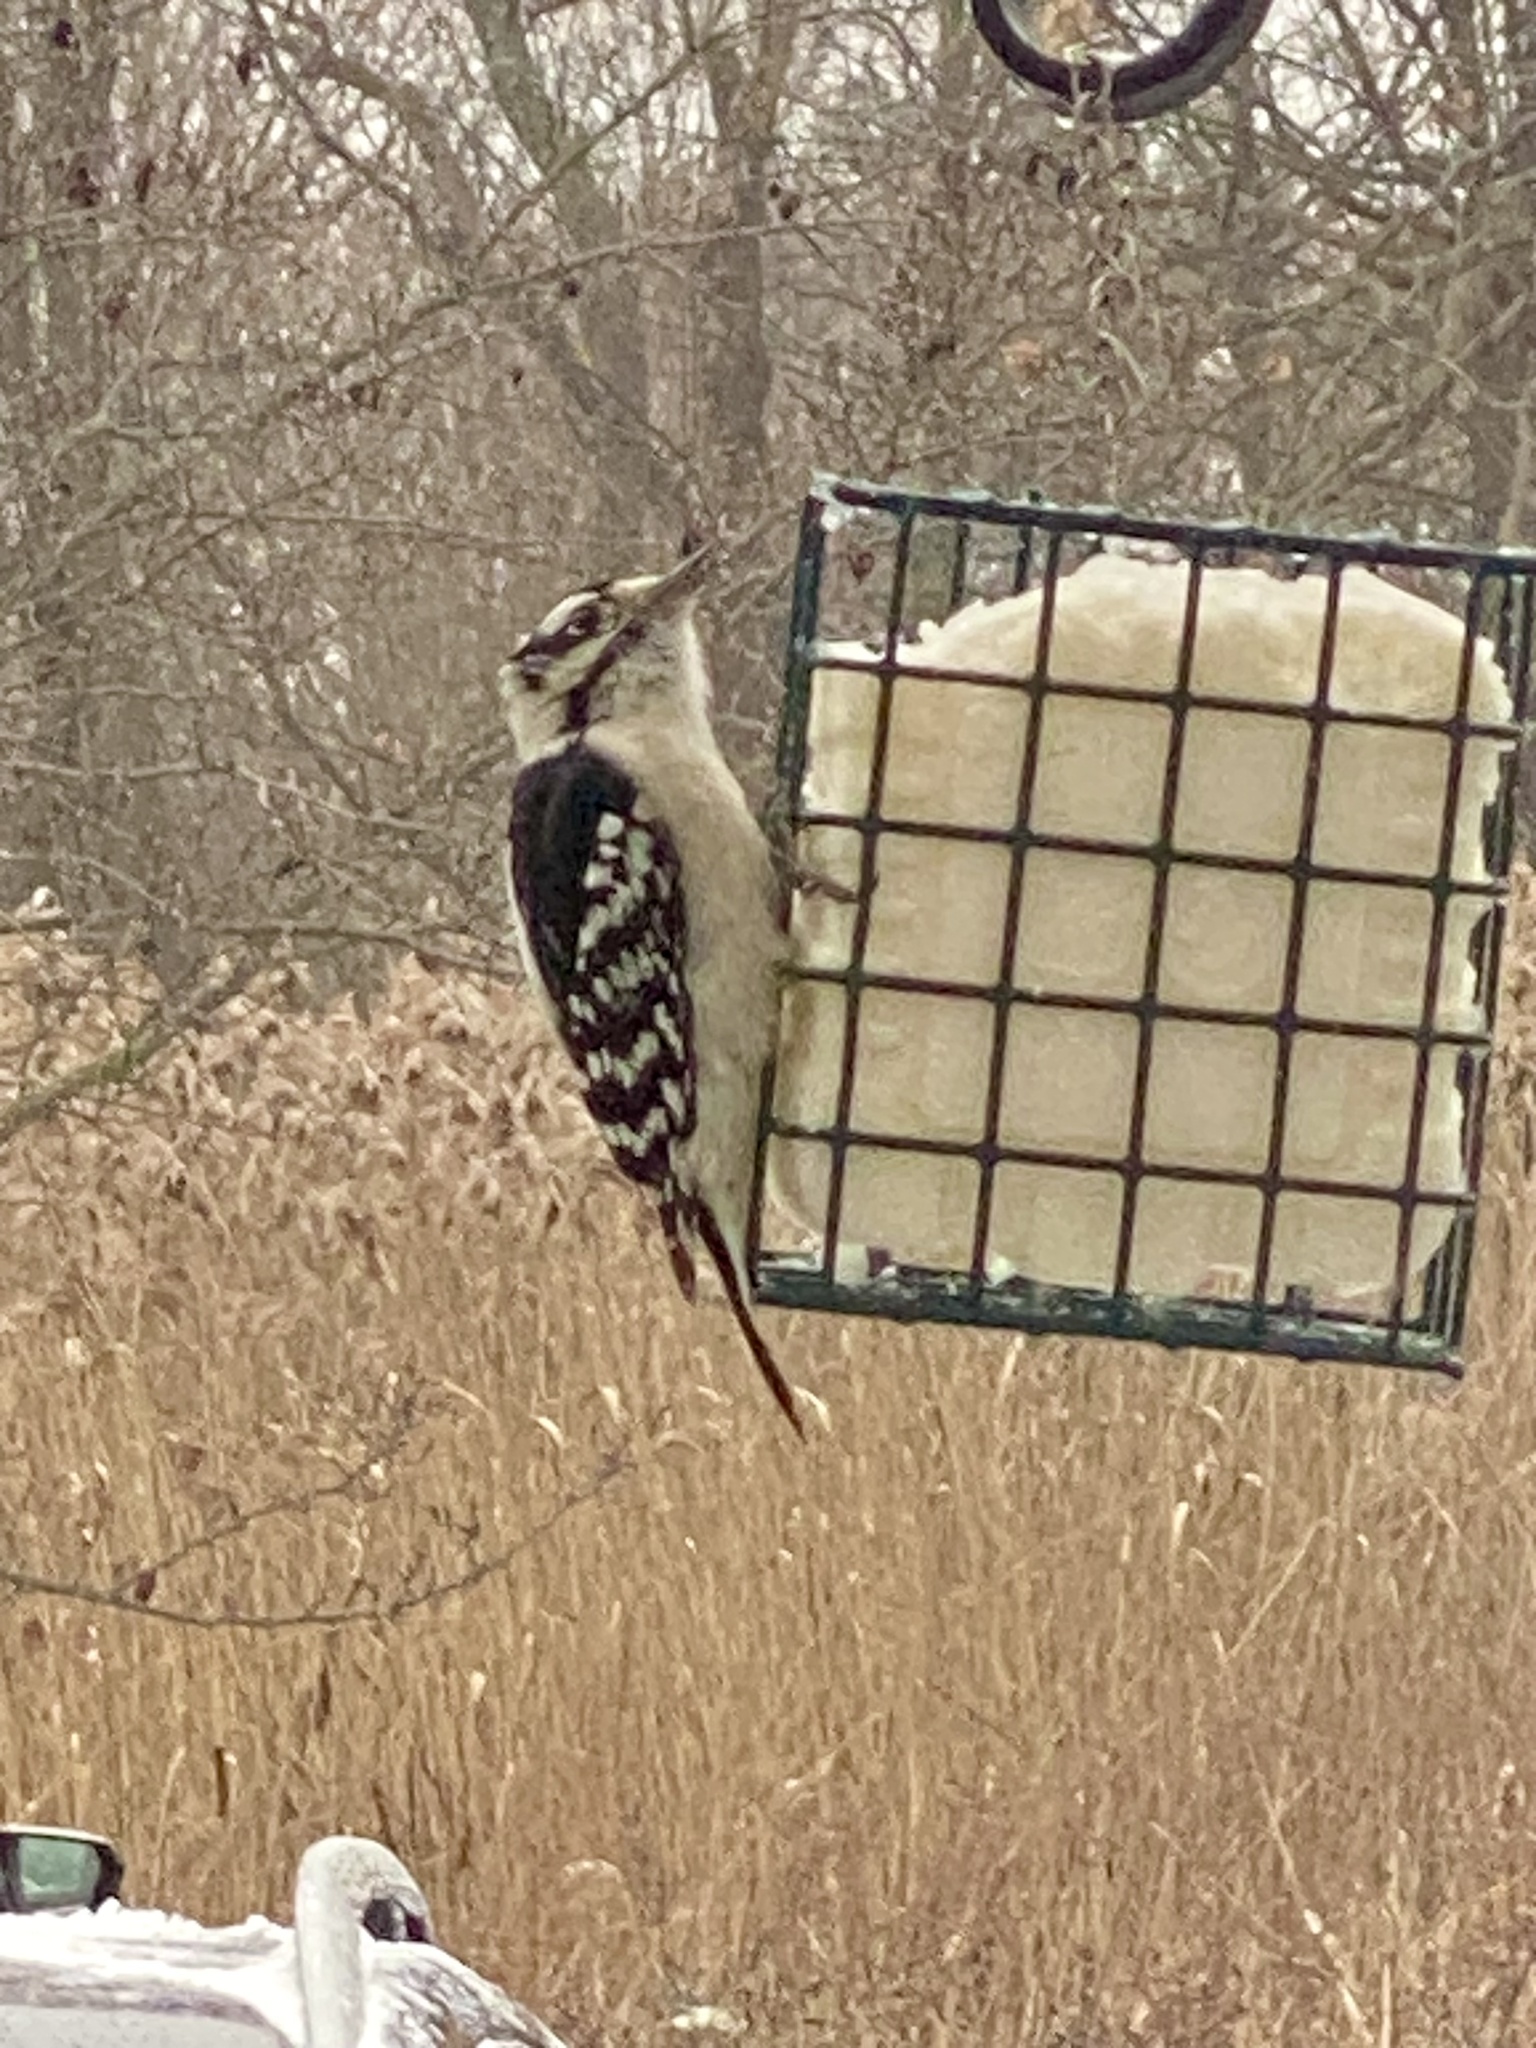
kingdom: Animalia
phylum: Chordata
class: Aves
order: Piciformes
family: Picidae
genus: Dryobates
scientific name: Dryobates pubescens
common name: Downy woodpecker
